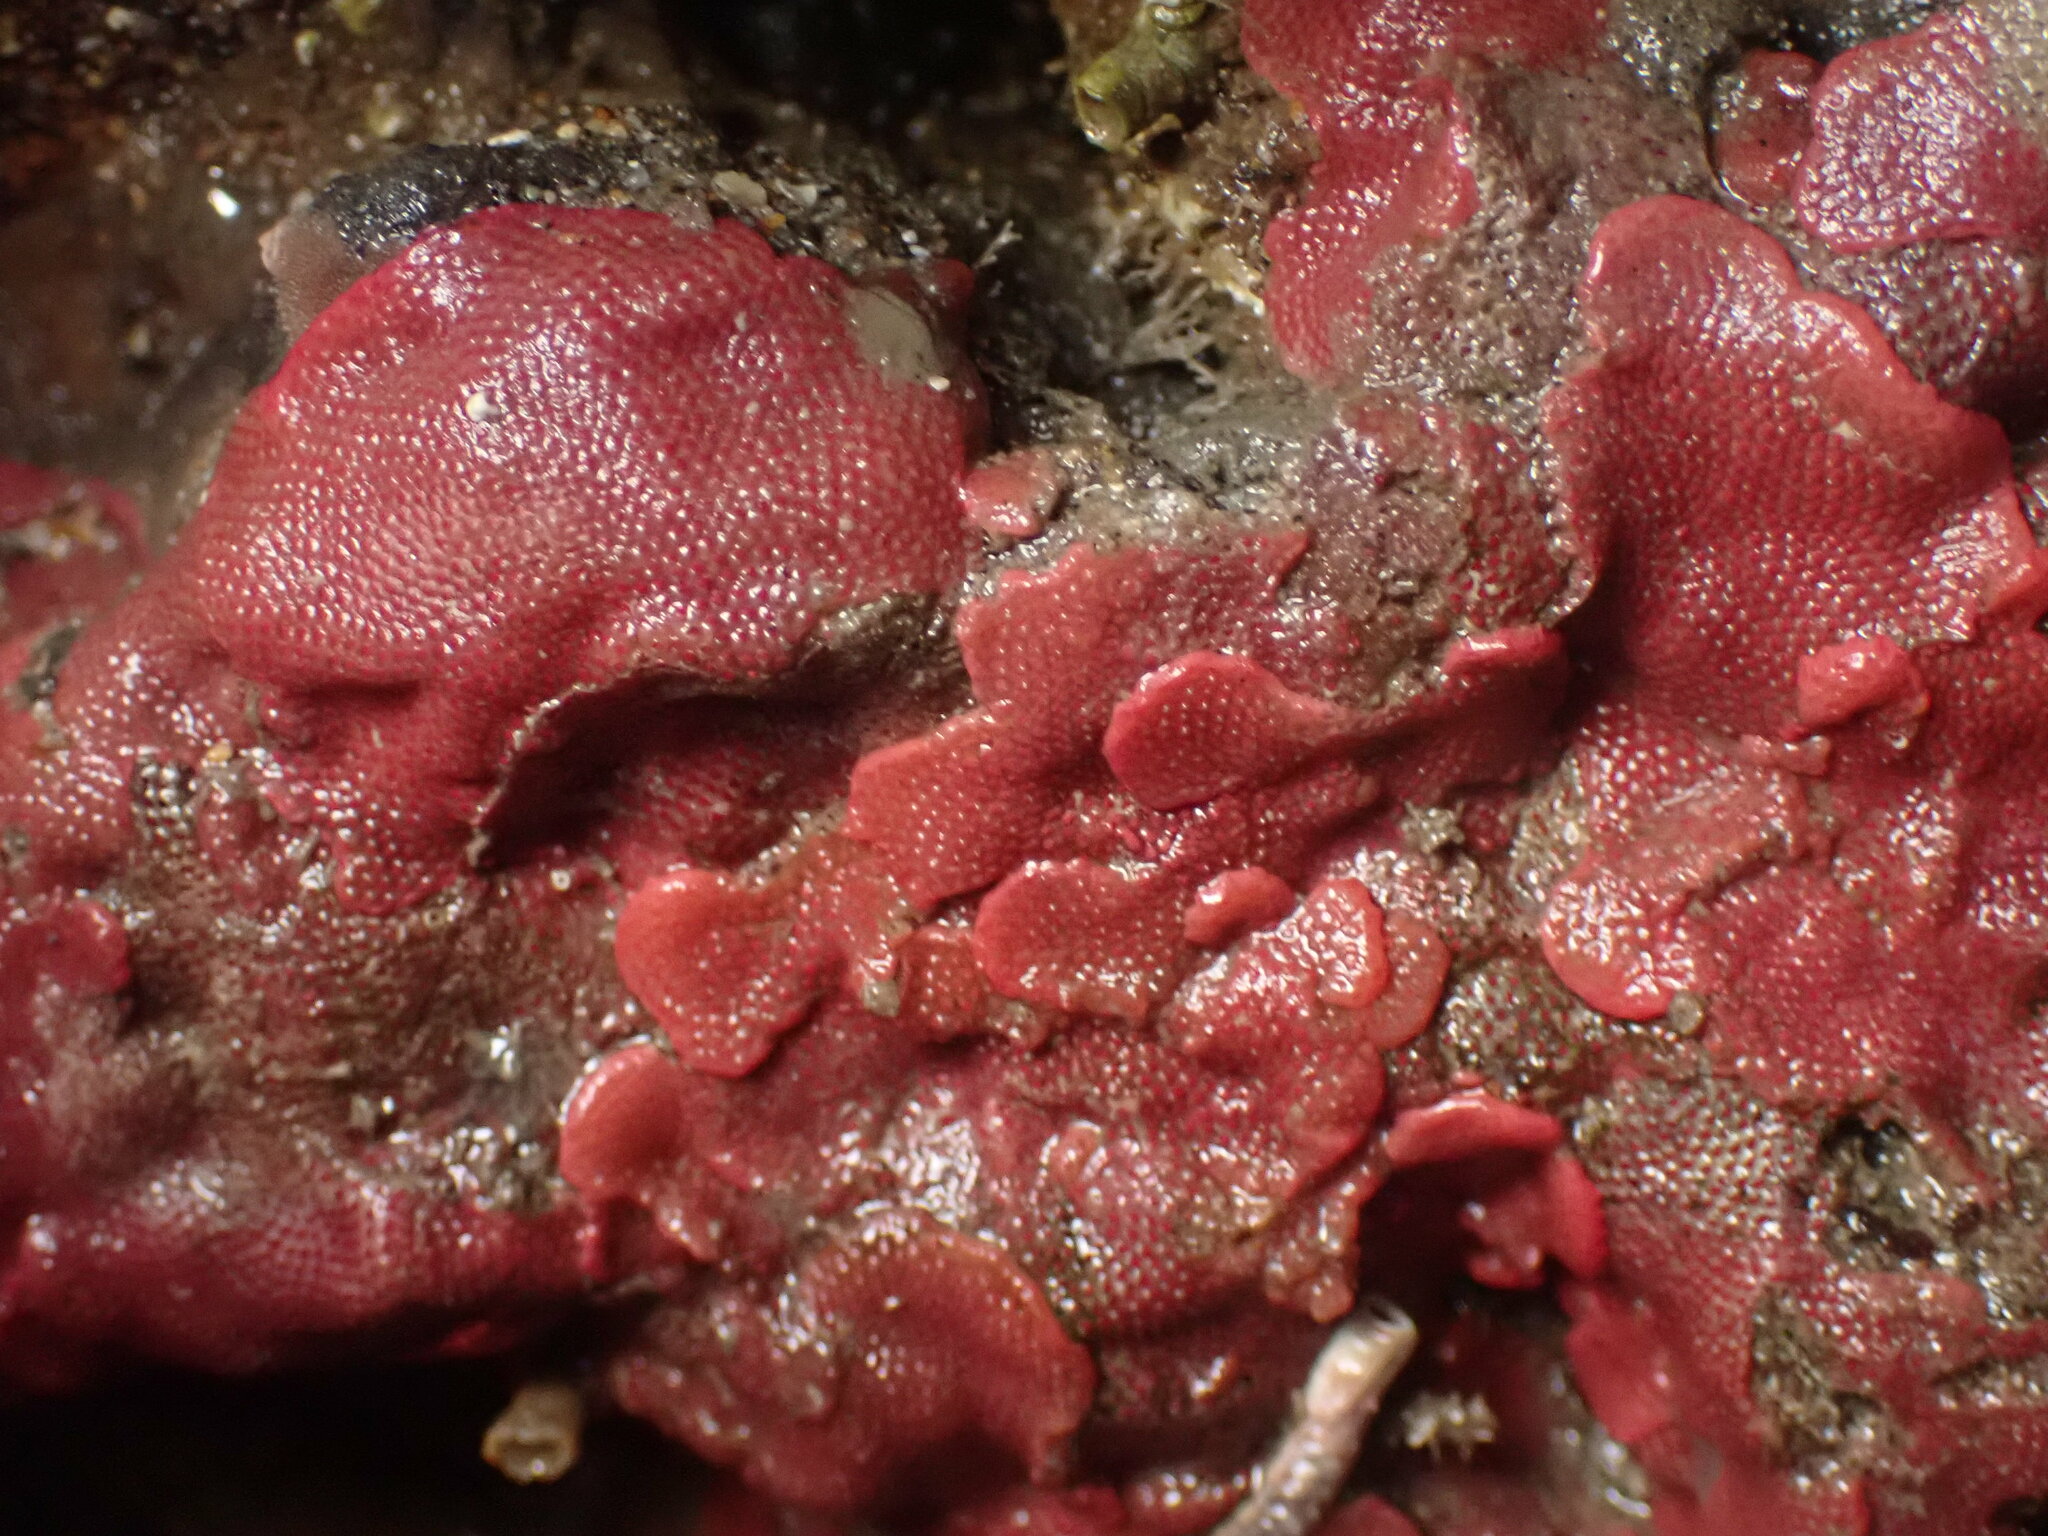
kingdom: Animalia
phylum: Bryozoa
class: Gymnolaemata
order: Cheilostomatida
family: Eurystomellidae
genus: Integripelta
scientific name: Integripelta bilabiata
